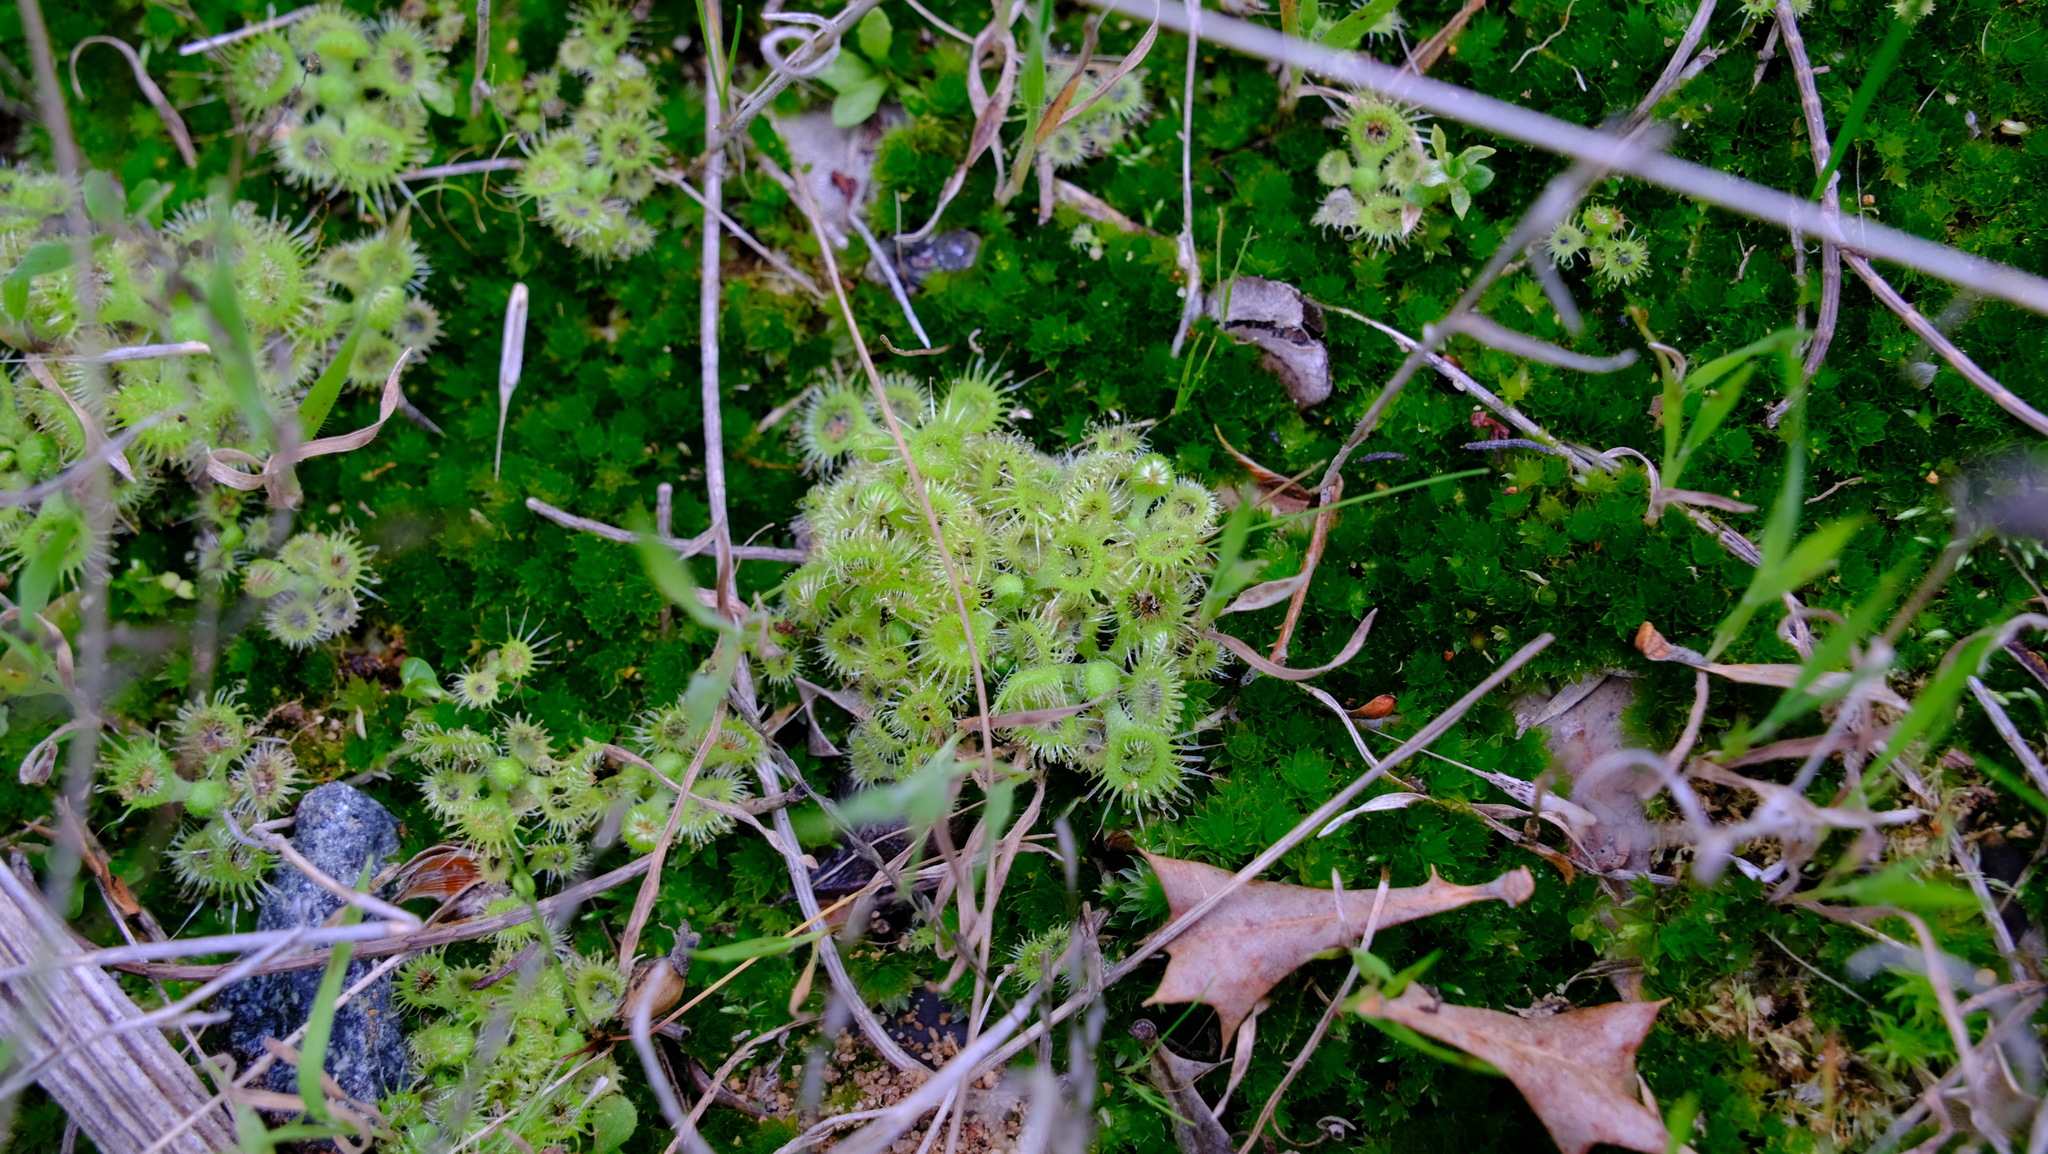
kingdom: Plantae
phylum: Tracheophyta
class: Magnoliopsida
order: Caryophyllales
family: Droseraceae
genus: Drosera
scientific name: Drosera glanduligera
